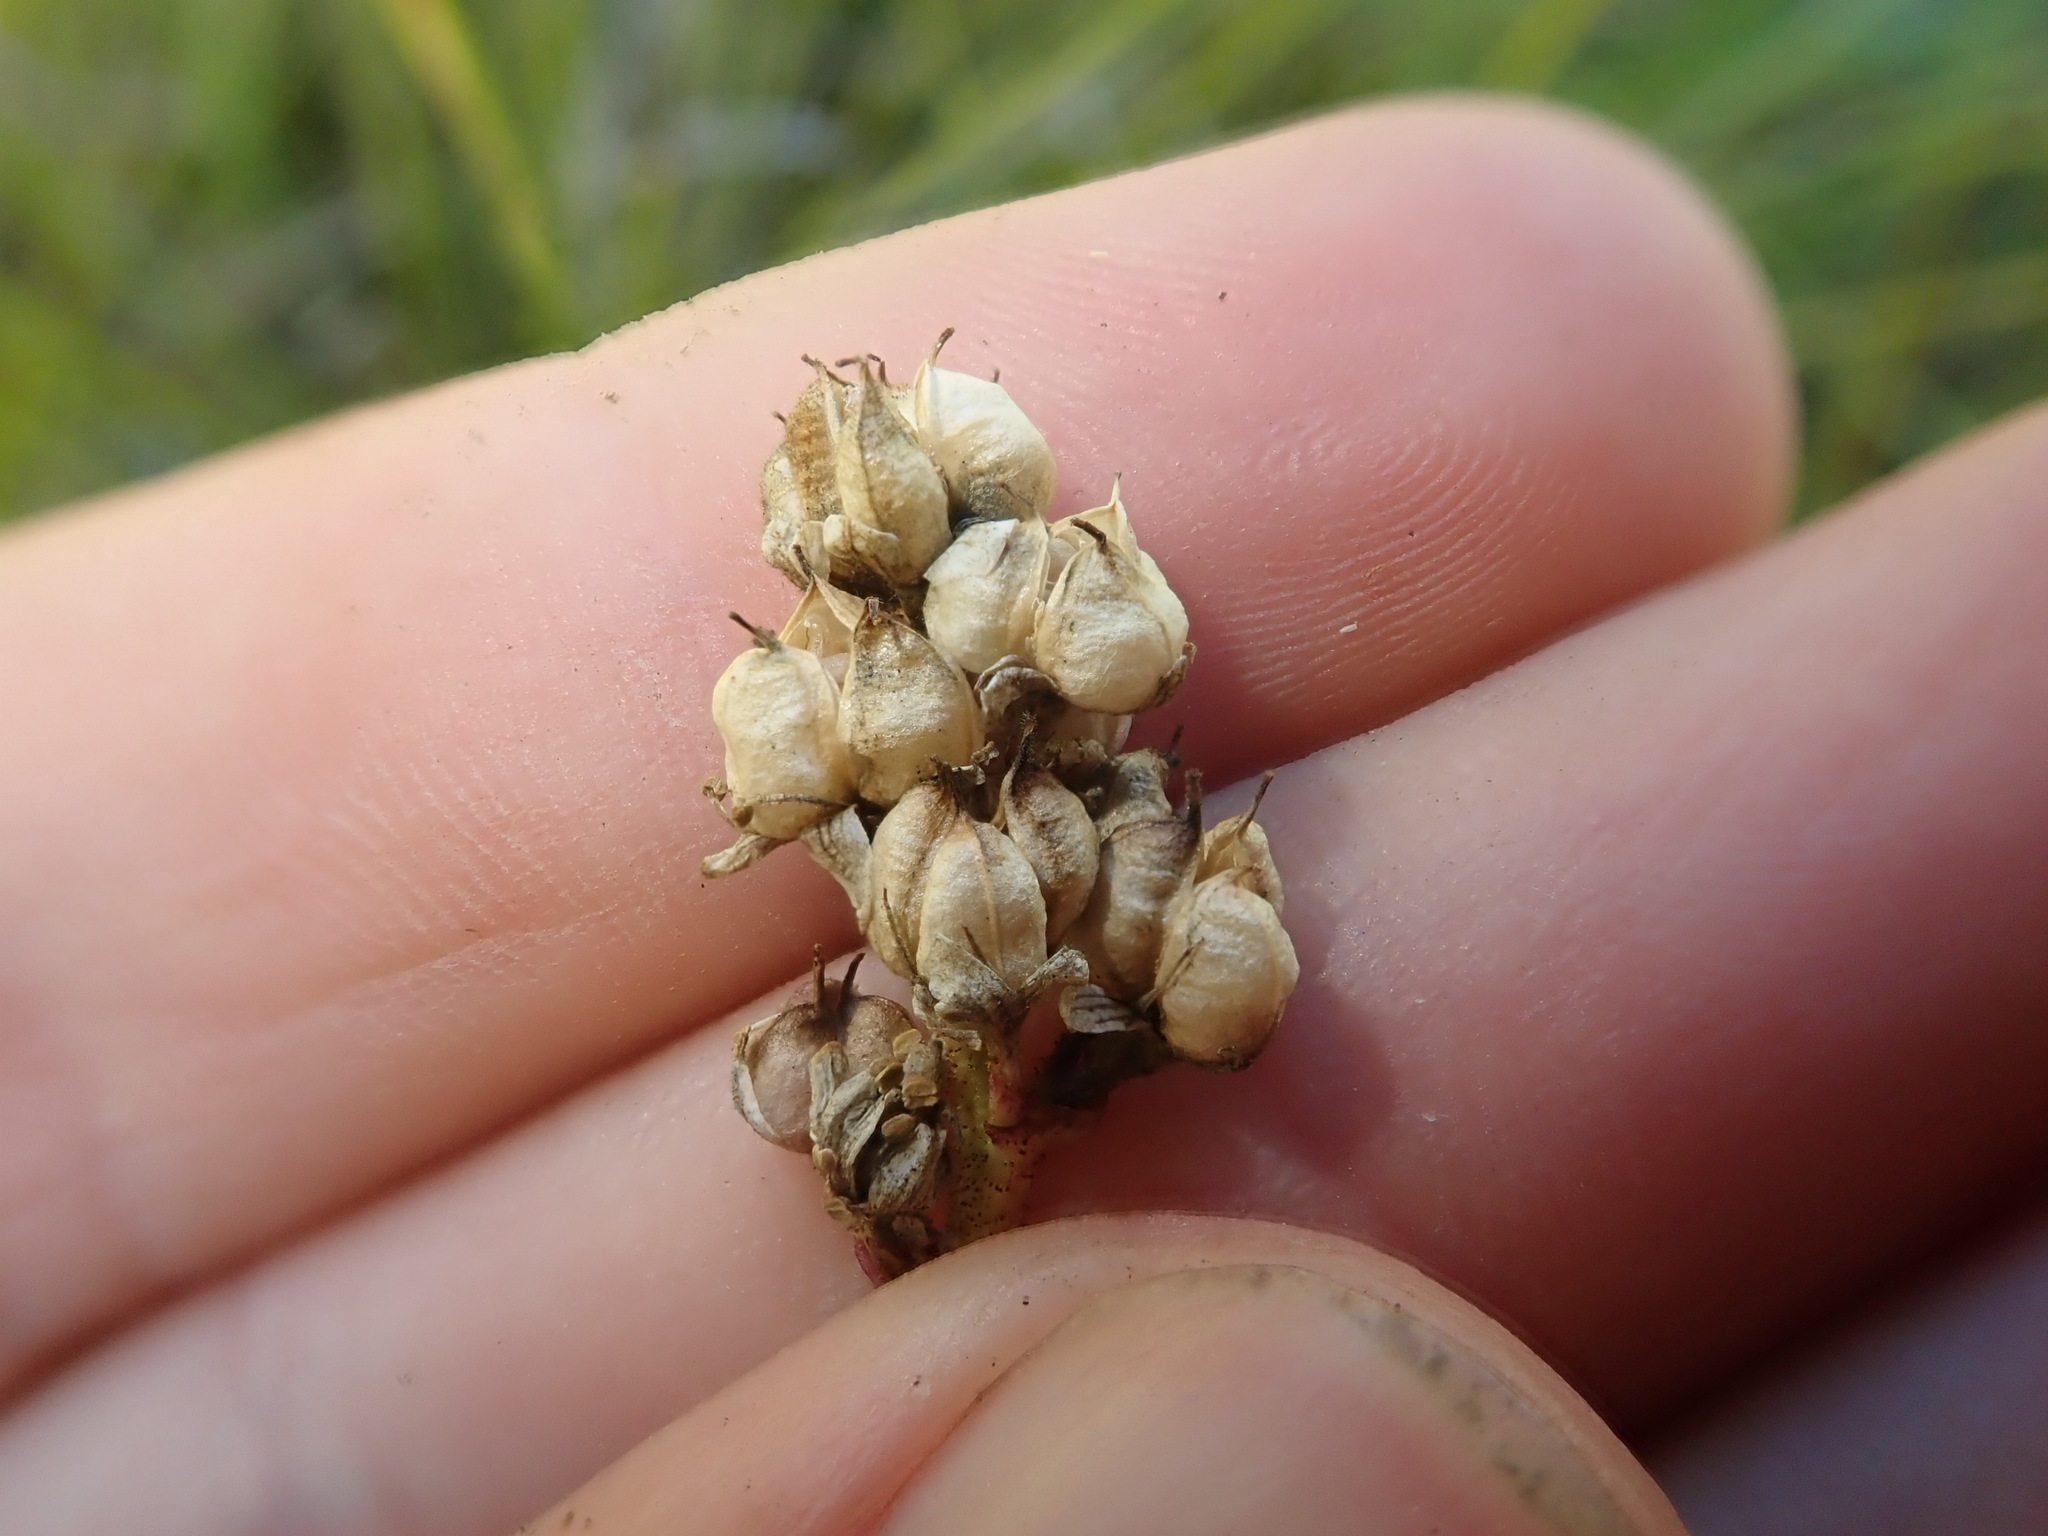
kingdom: Plantae
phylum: Tracheophyta
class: Liliopsida
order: Alismatales
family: Tofieldiaceae
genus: Triantha
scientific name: Triantha occidentalis
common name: Western false asphodel
